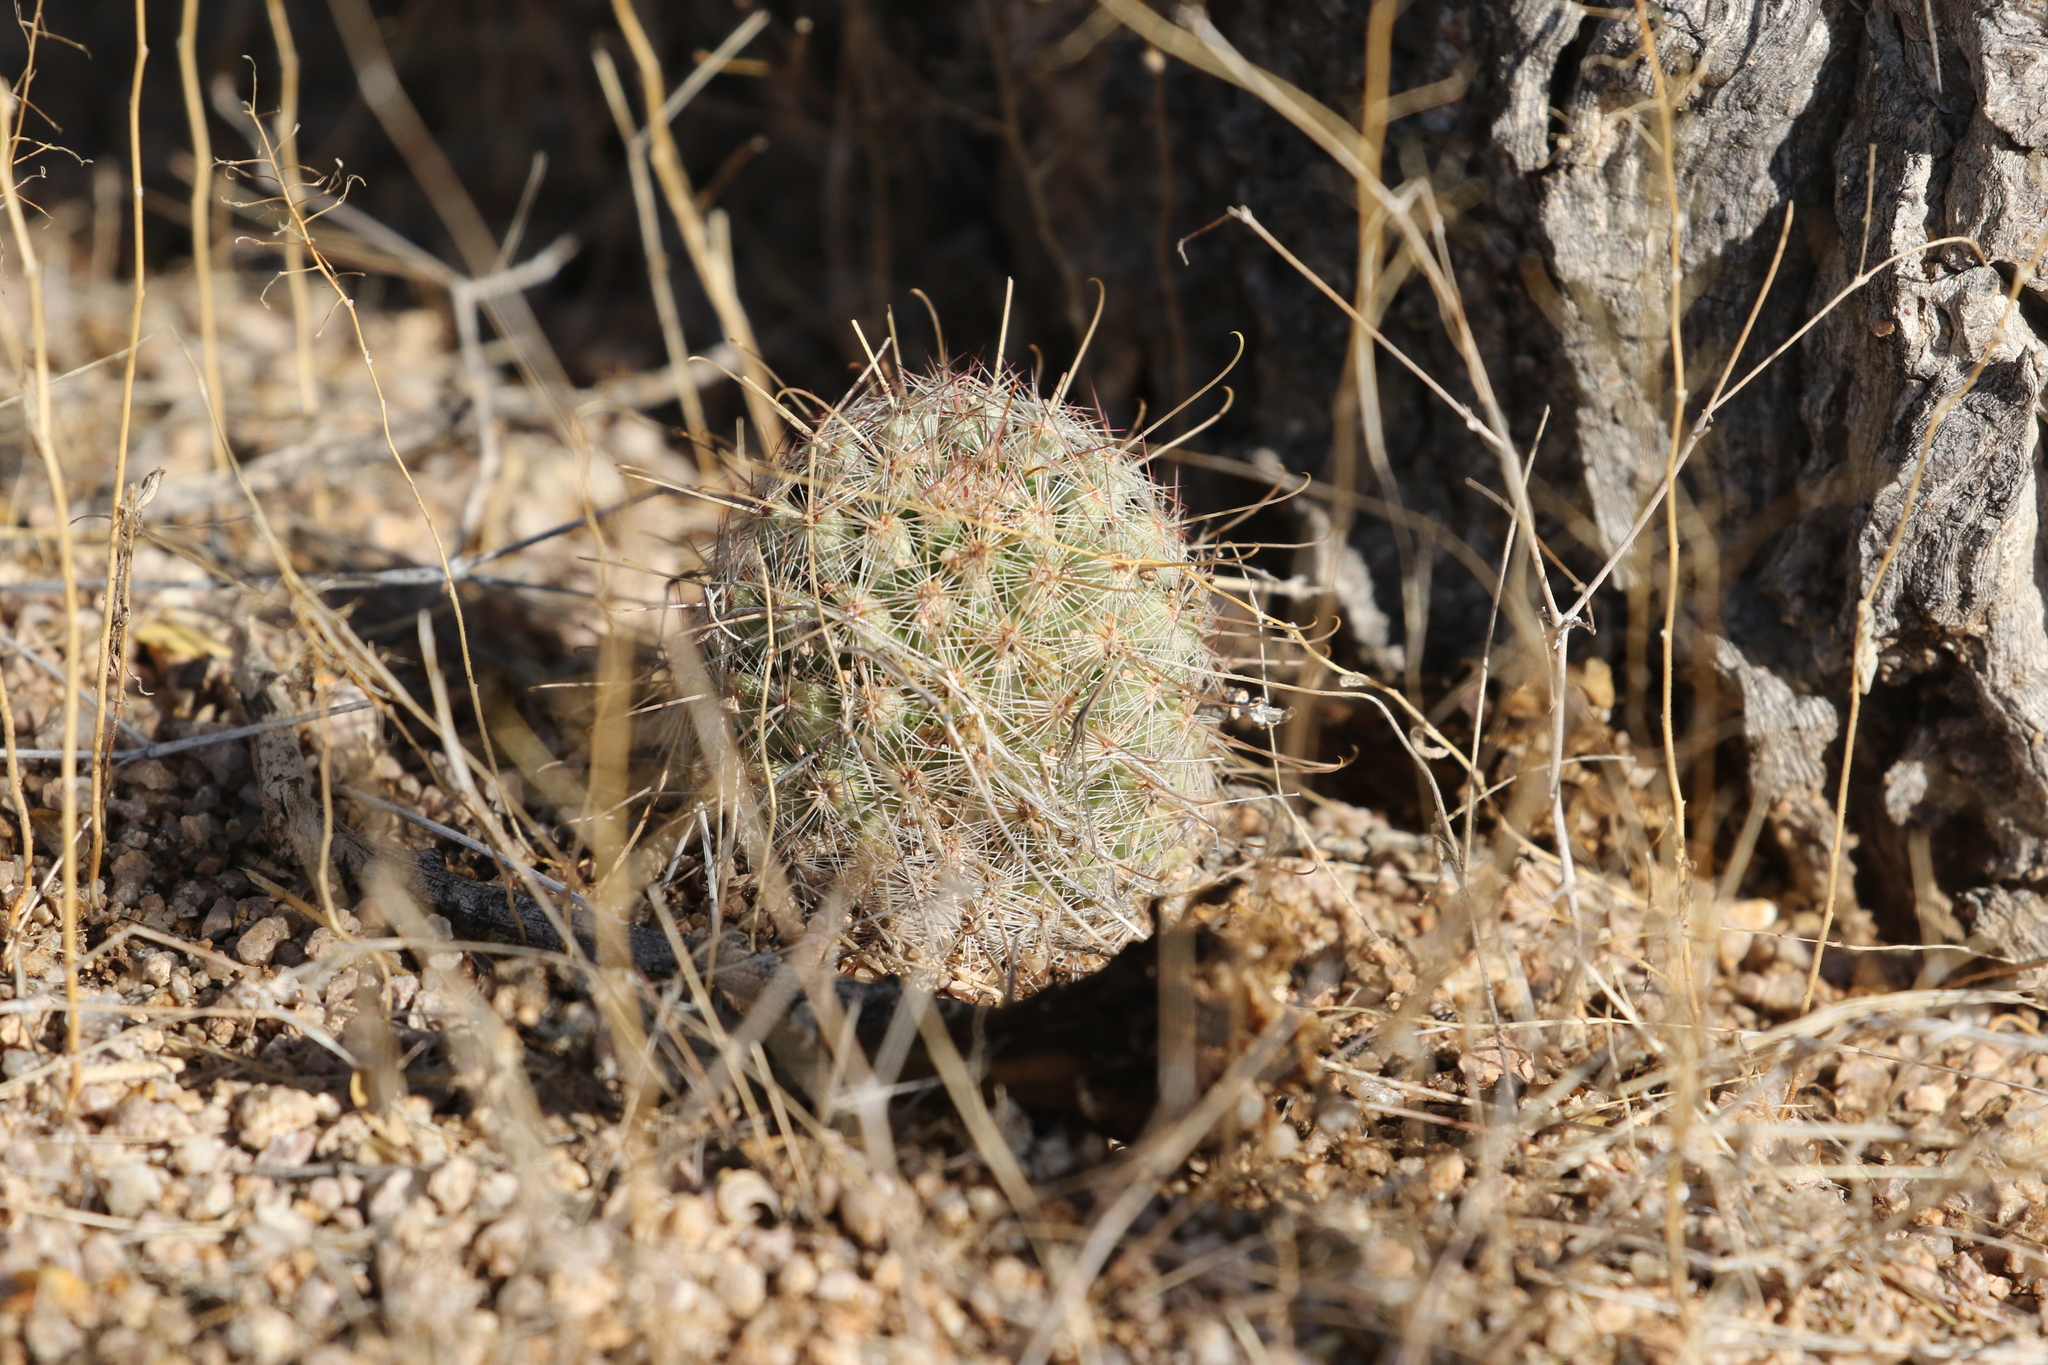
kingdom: Plantae
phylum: Tracheophyta
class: Magnoliopsida
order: Caryophyllales
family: Cactaceae
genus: Cochemiea
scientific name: Cochemiea grahamii
